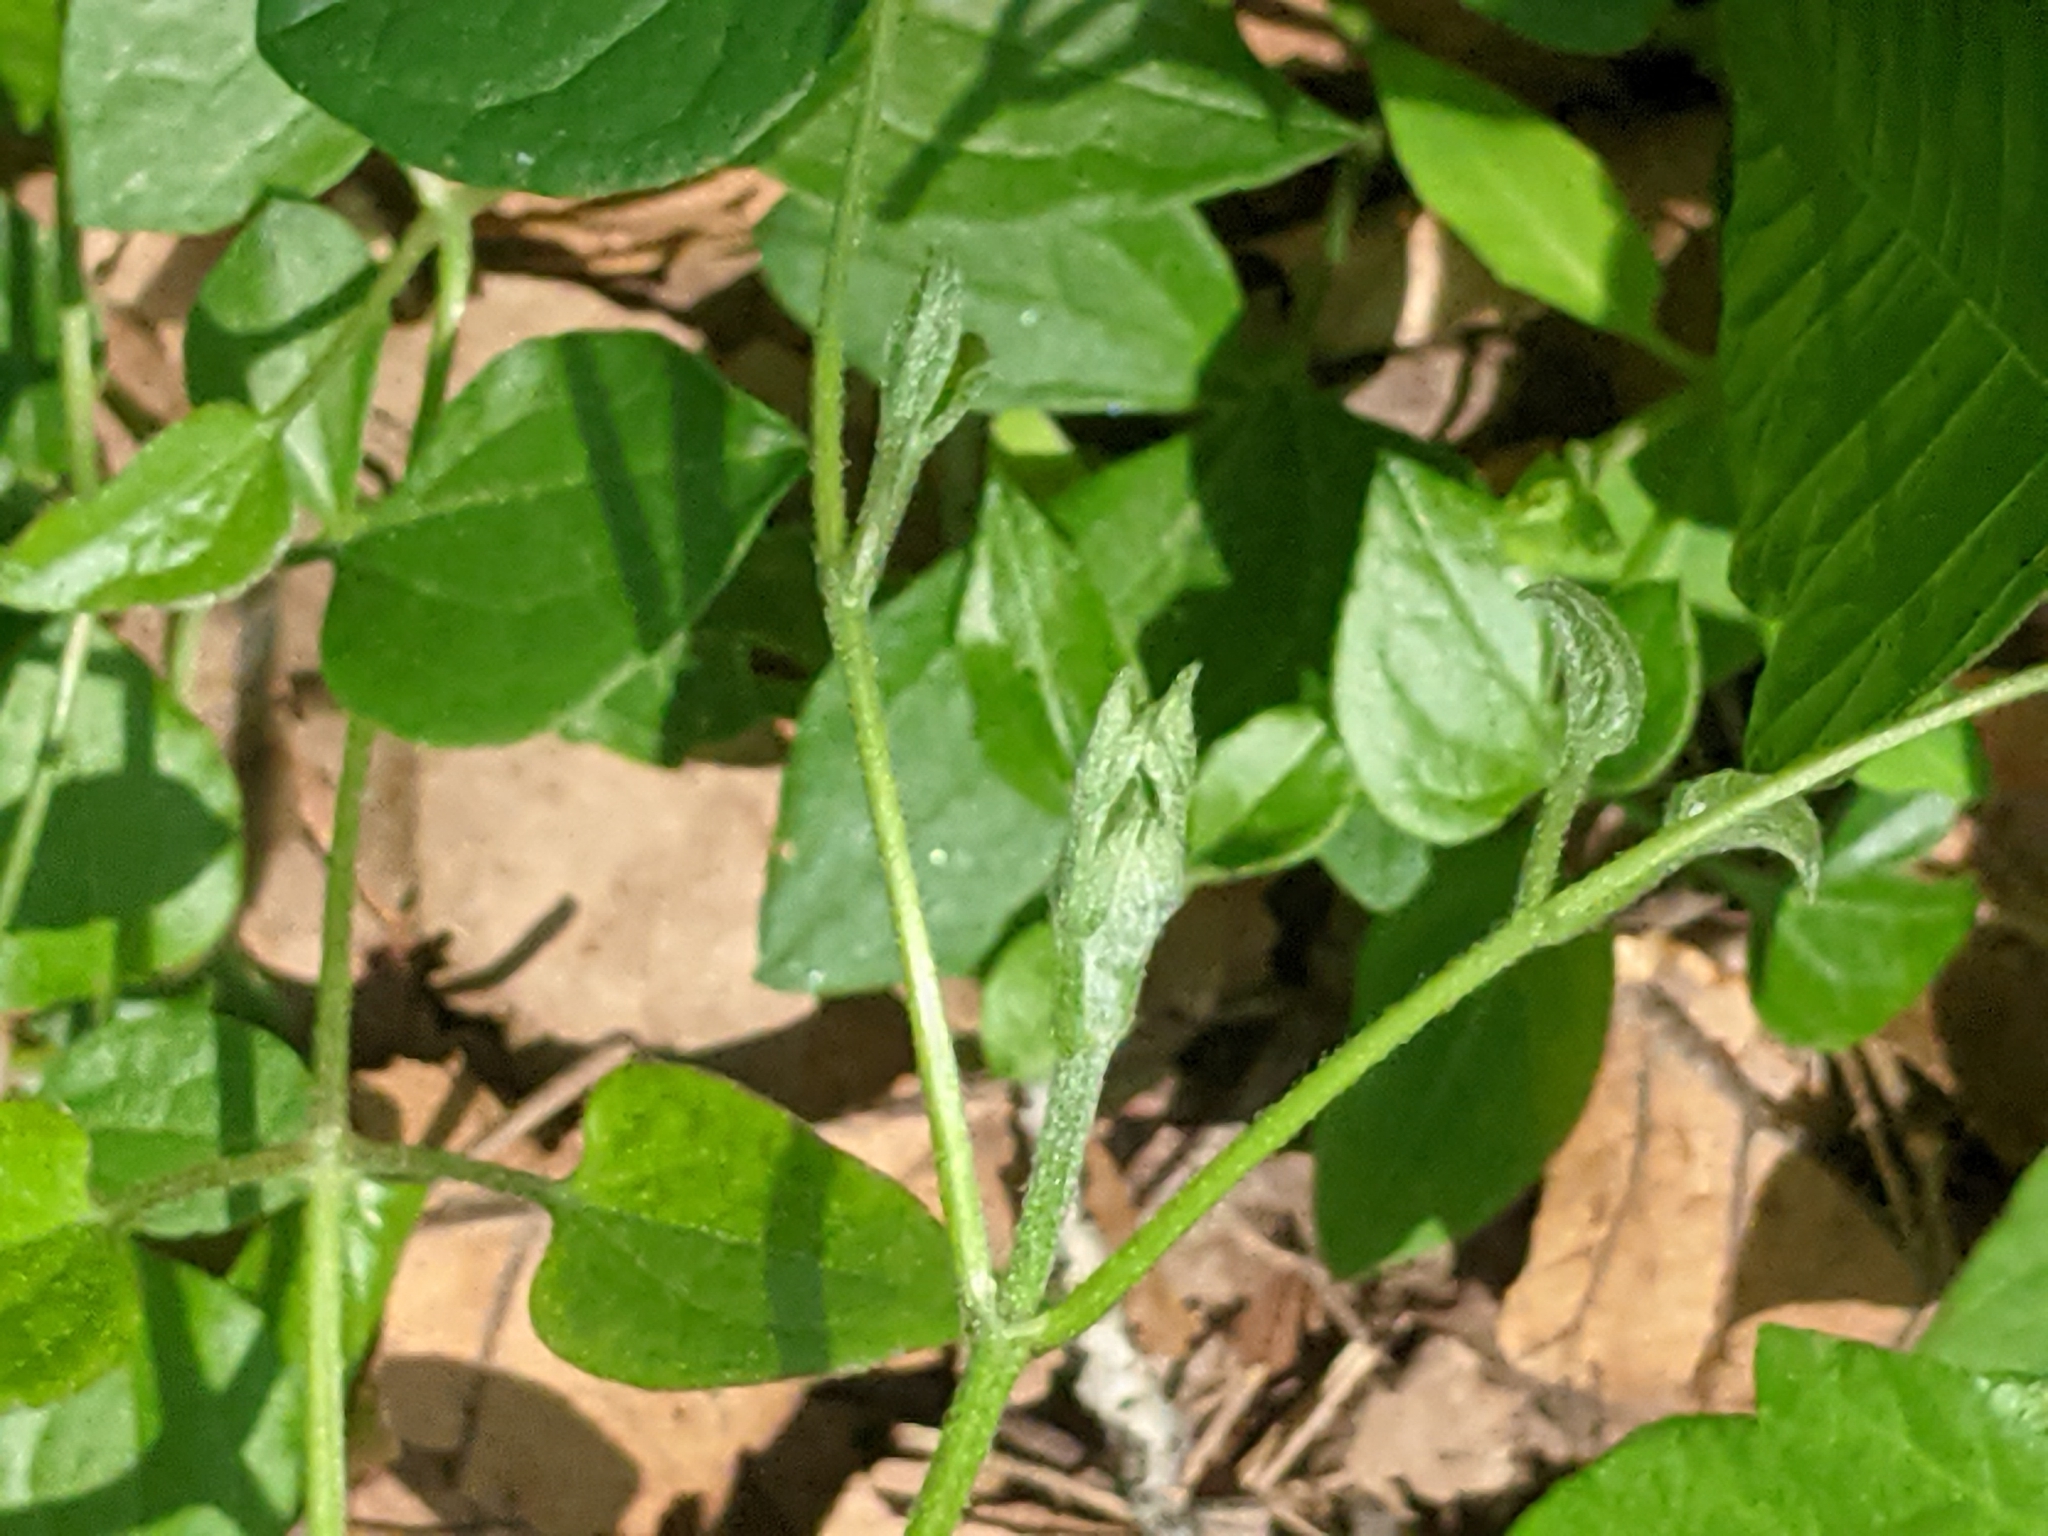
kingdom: Plantae
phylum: Tracheophyta
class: Magnoliopsida
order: Ranunculales
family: Ranunculaceae
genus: Clematis
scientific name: Clematis terniflora
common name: Sweet autumn clematis
